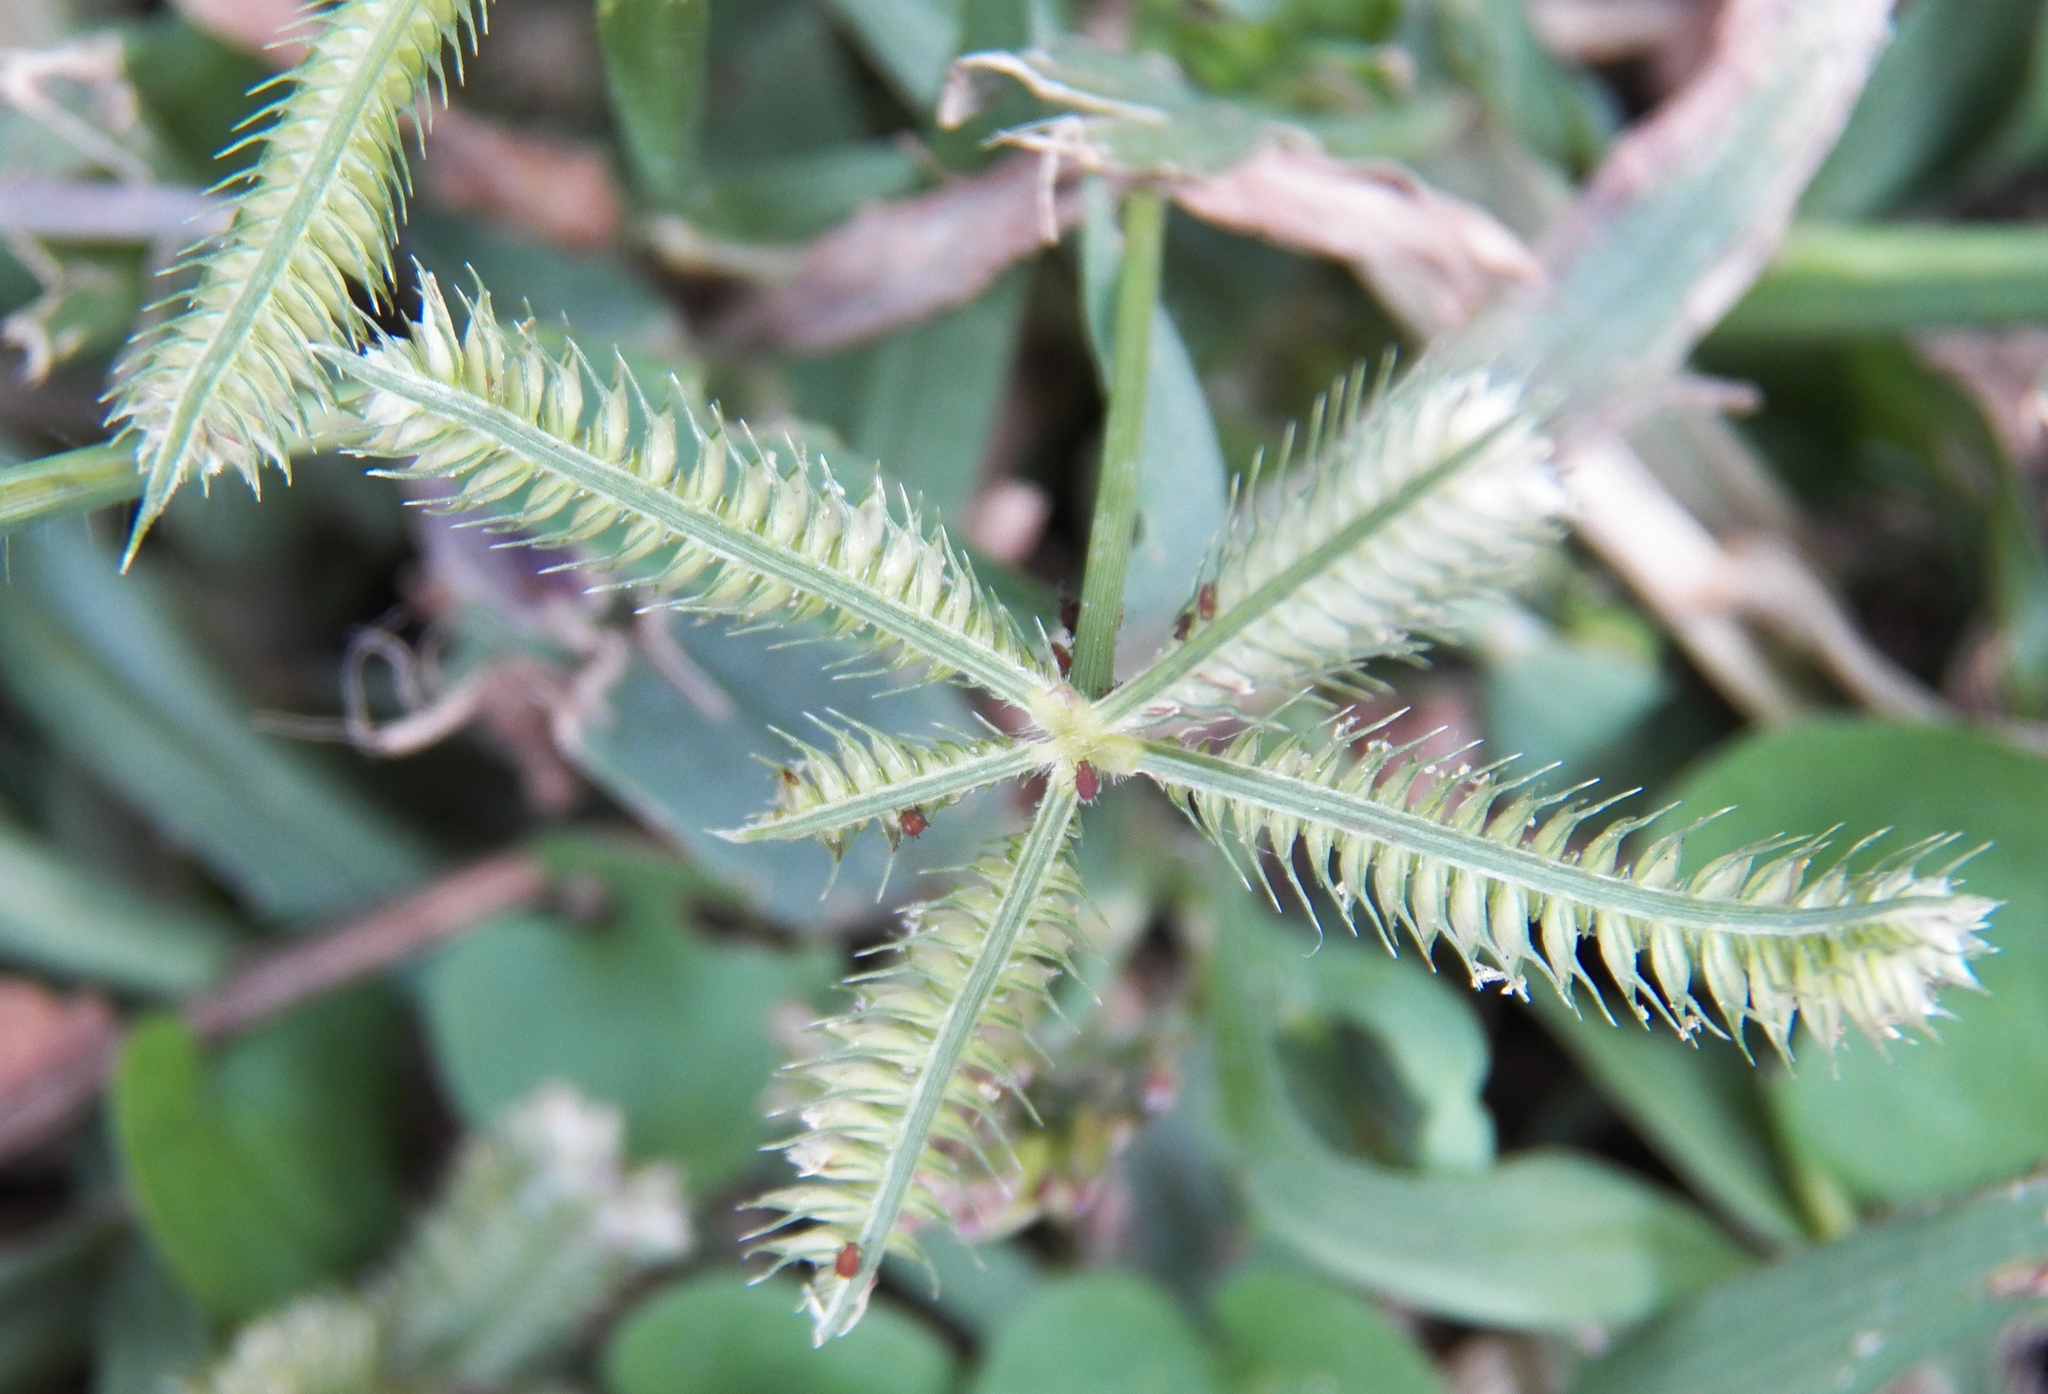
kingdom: Plantae
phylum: Tracheophyta
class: Liliopsida
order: Poales
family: Poaceae
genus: Dactyloctenium
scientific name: Dactyloctenium aegyptium
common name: Egyptian grass
